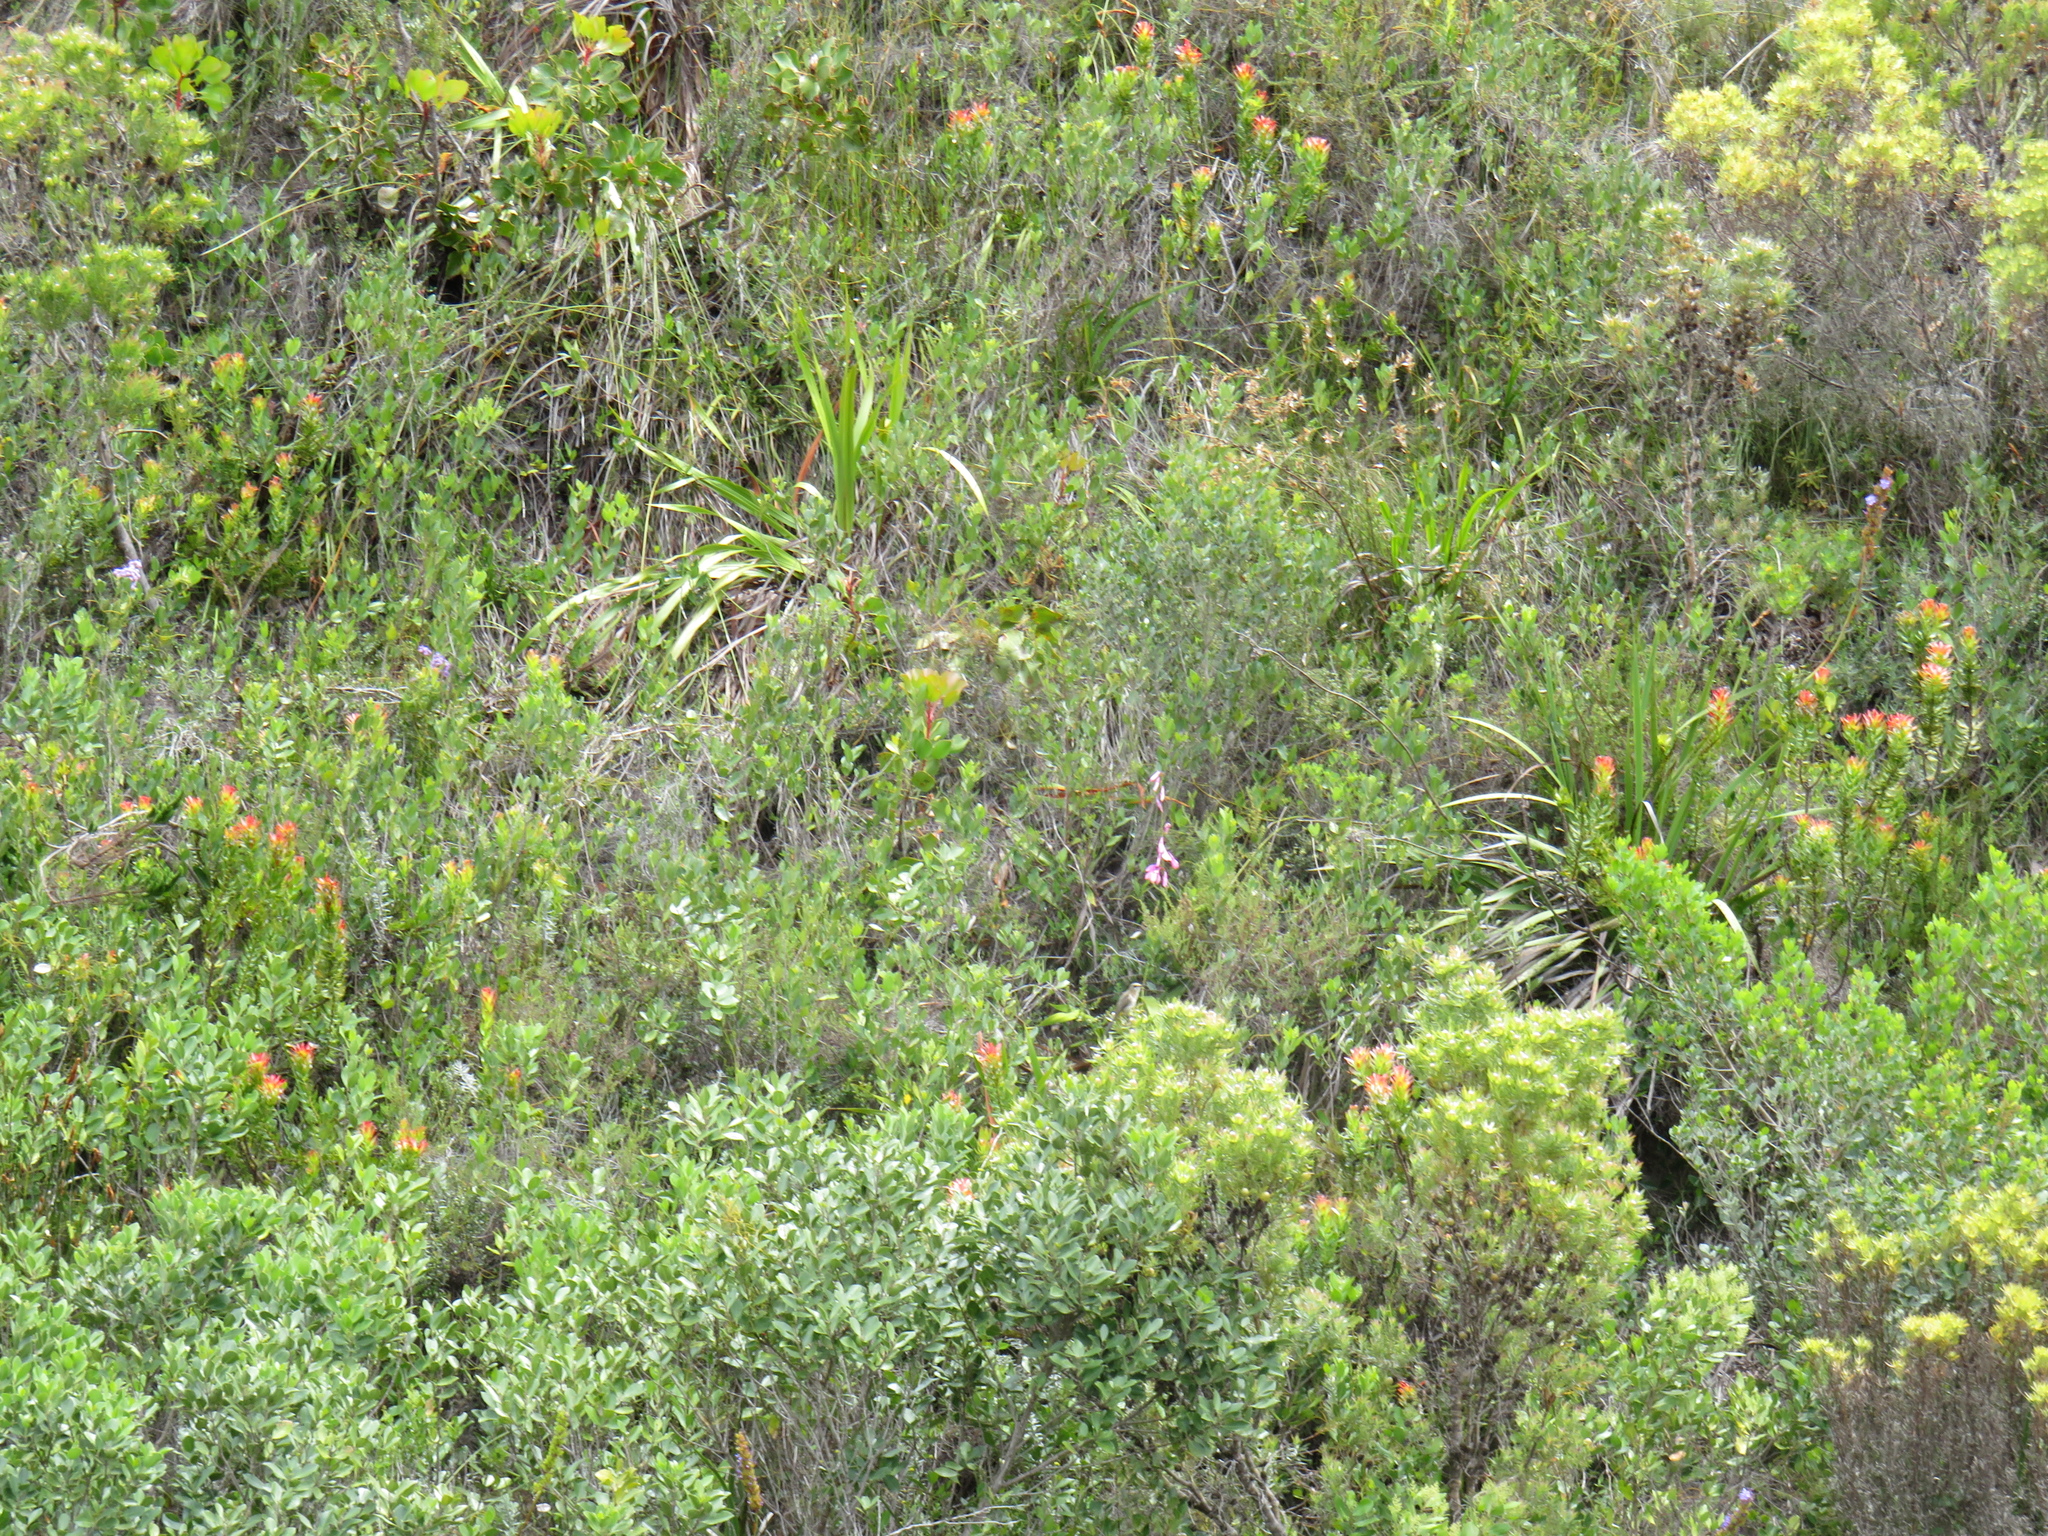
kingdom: Plantae
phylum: Tracheophyta
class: Liliopsida
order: Asparagales
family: Iridaceae
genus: Watsonia
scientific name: Watsonia borbonica
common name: Bugle-lily
